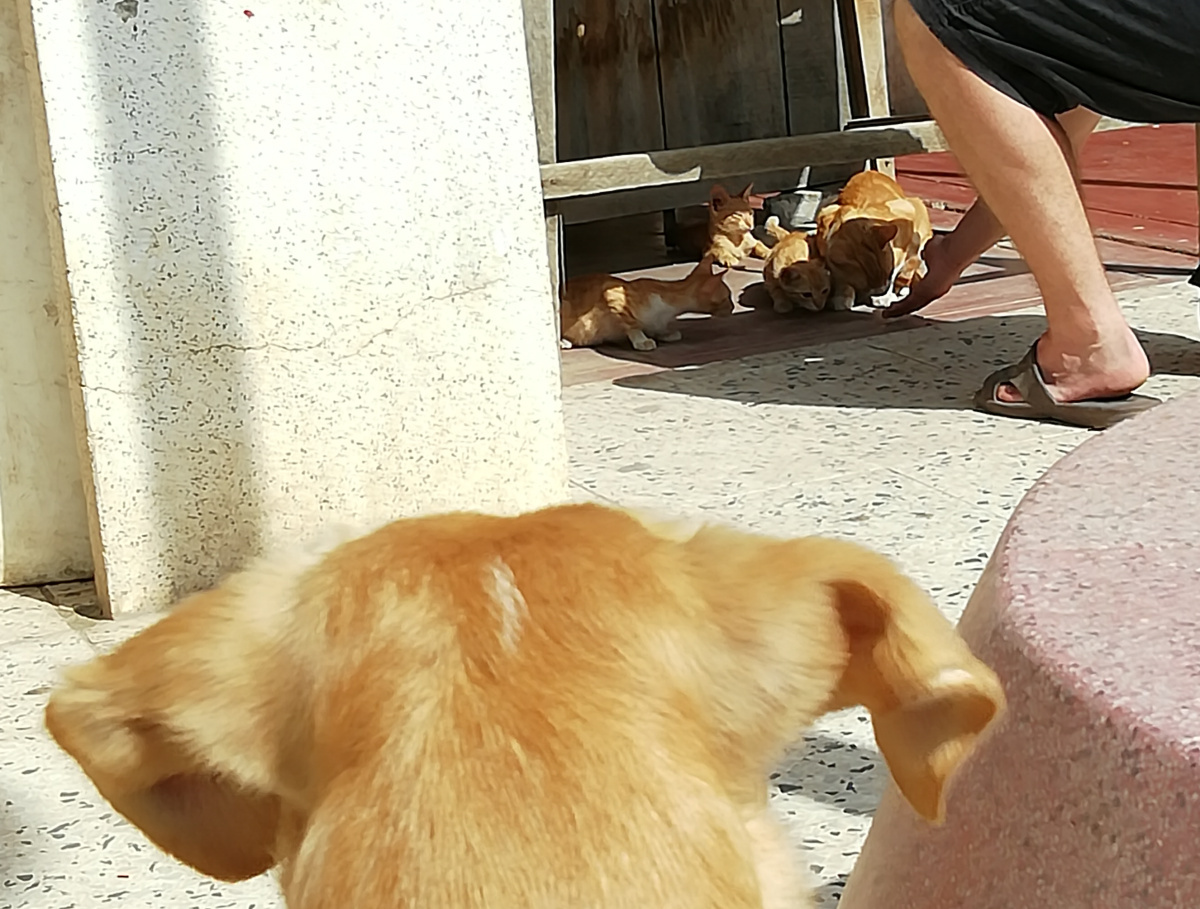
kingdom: Animalia
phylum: Chordata
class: Mammalia
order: Carnivora
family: Felidae
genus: Felis
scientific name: Felis catus
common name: Domestic cat
